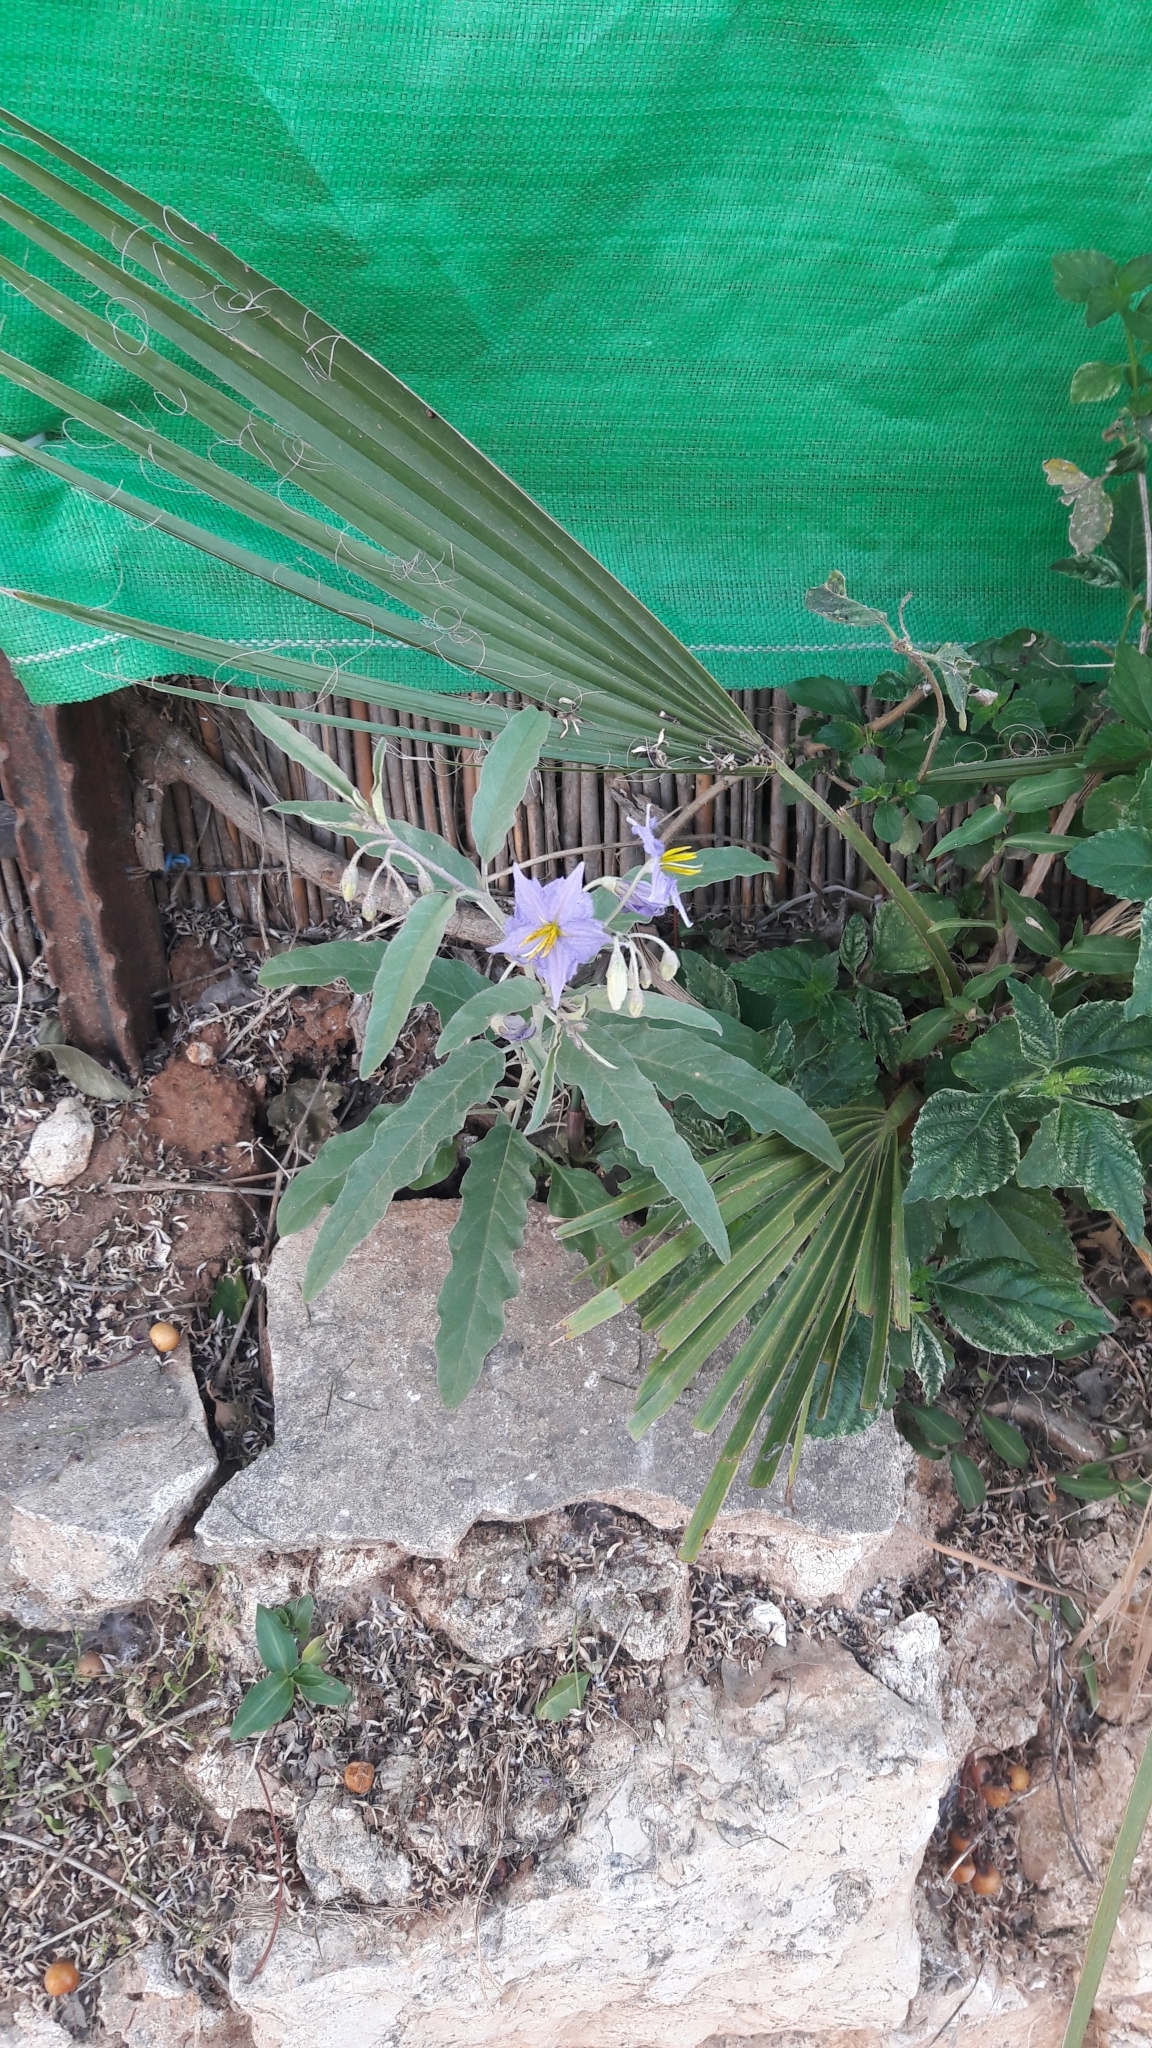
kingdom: Plantae
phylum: Tracheophyta
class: Magnoliopsida
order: Solanales
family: Solanaceae
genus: Solanum
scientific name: Solanum elaeagnifolium
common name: Silverleaf nightshade
